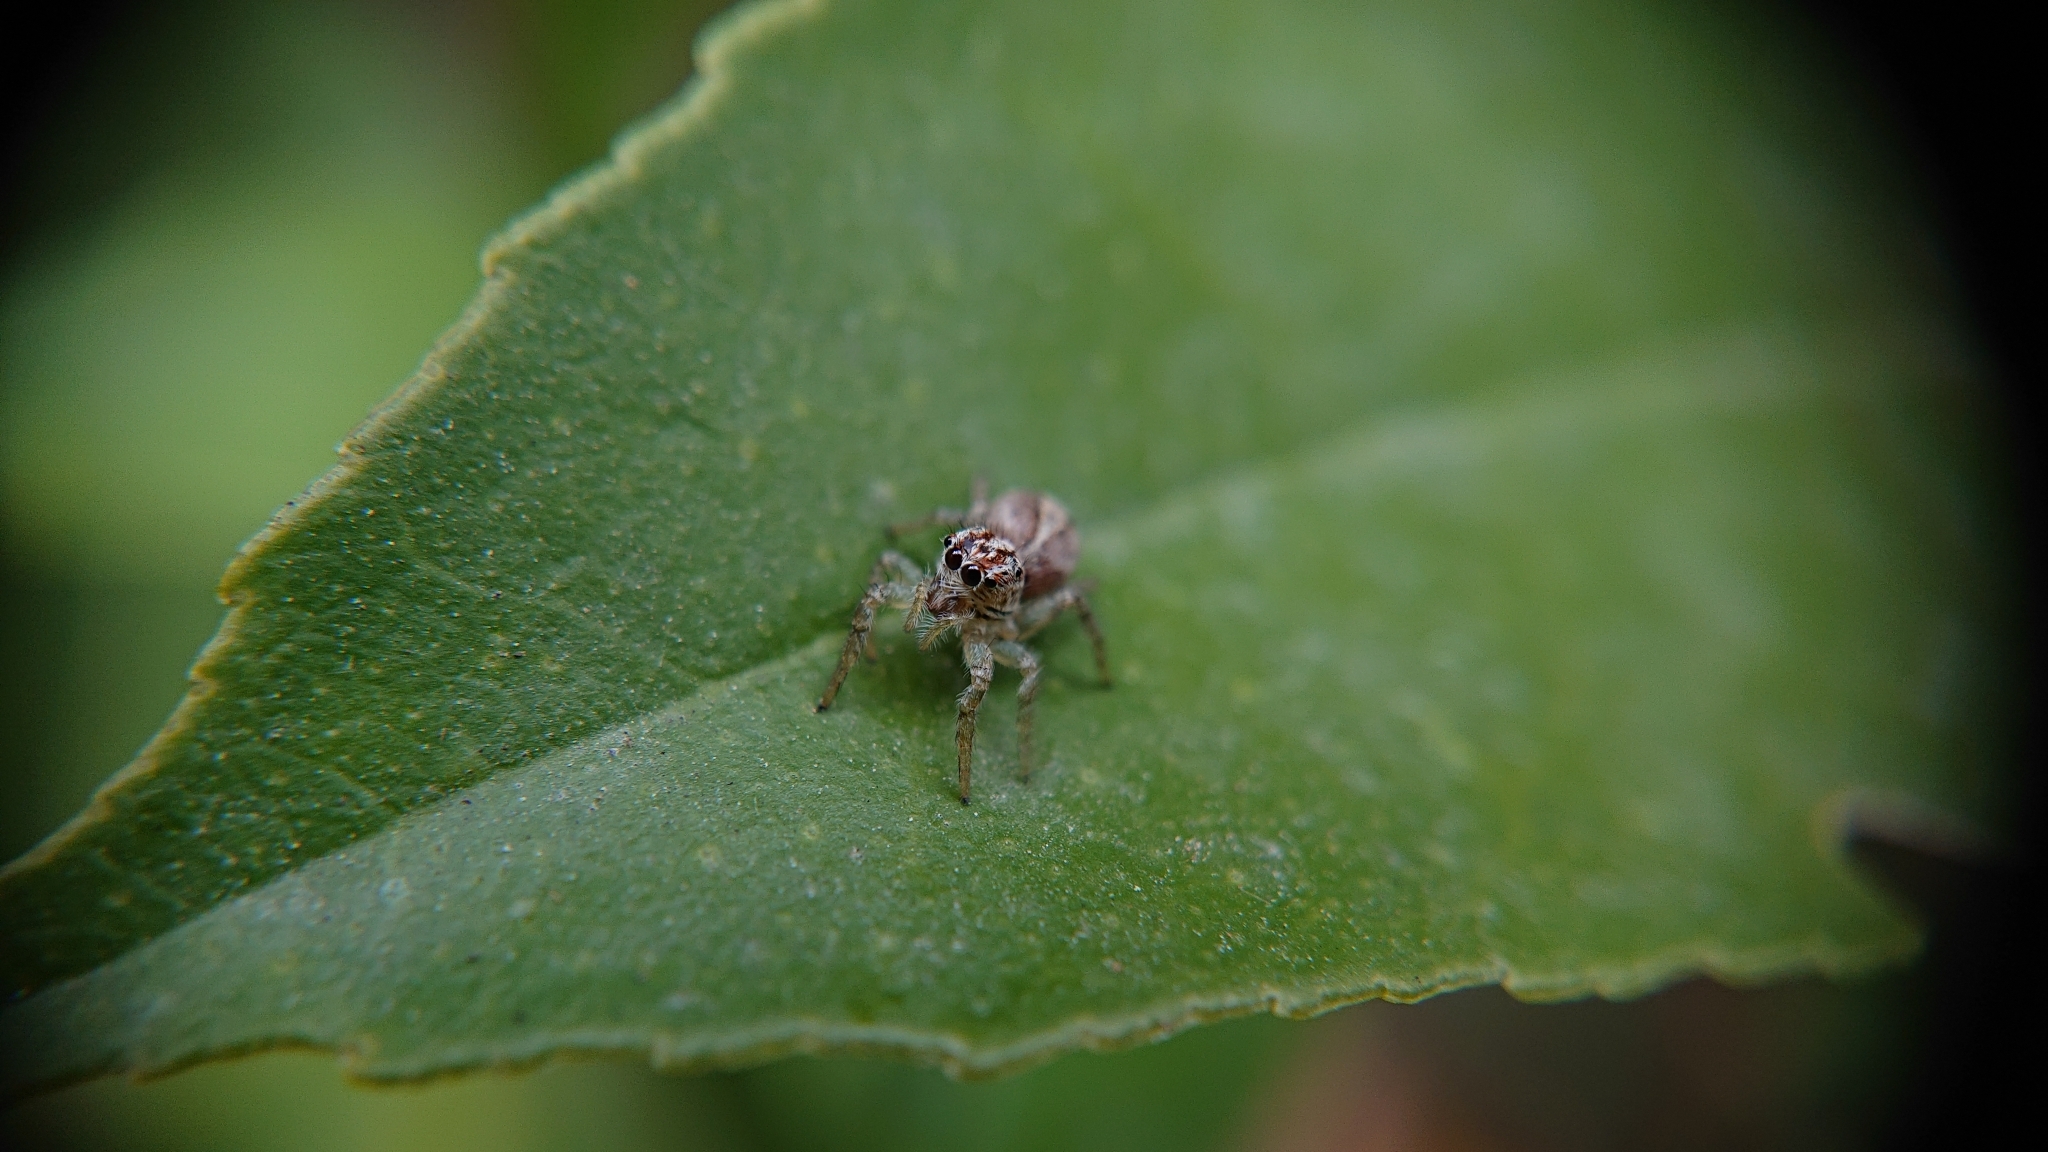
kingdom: Animalia
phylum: Arthropoda
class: Arachnida
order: Araneae
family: Salticidae
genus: Frigga
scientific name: Frigga crocuta
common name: Jumping spiders
